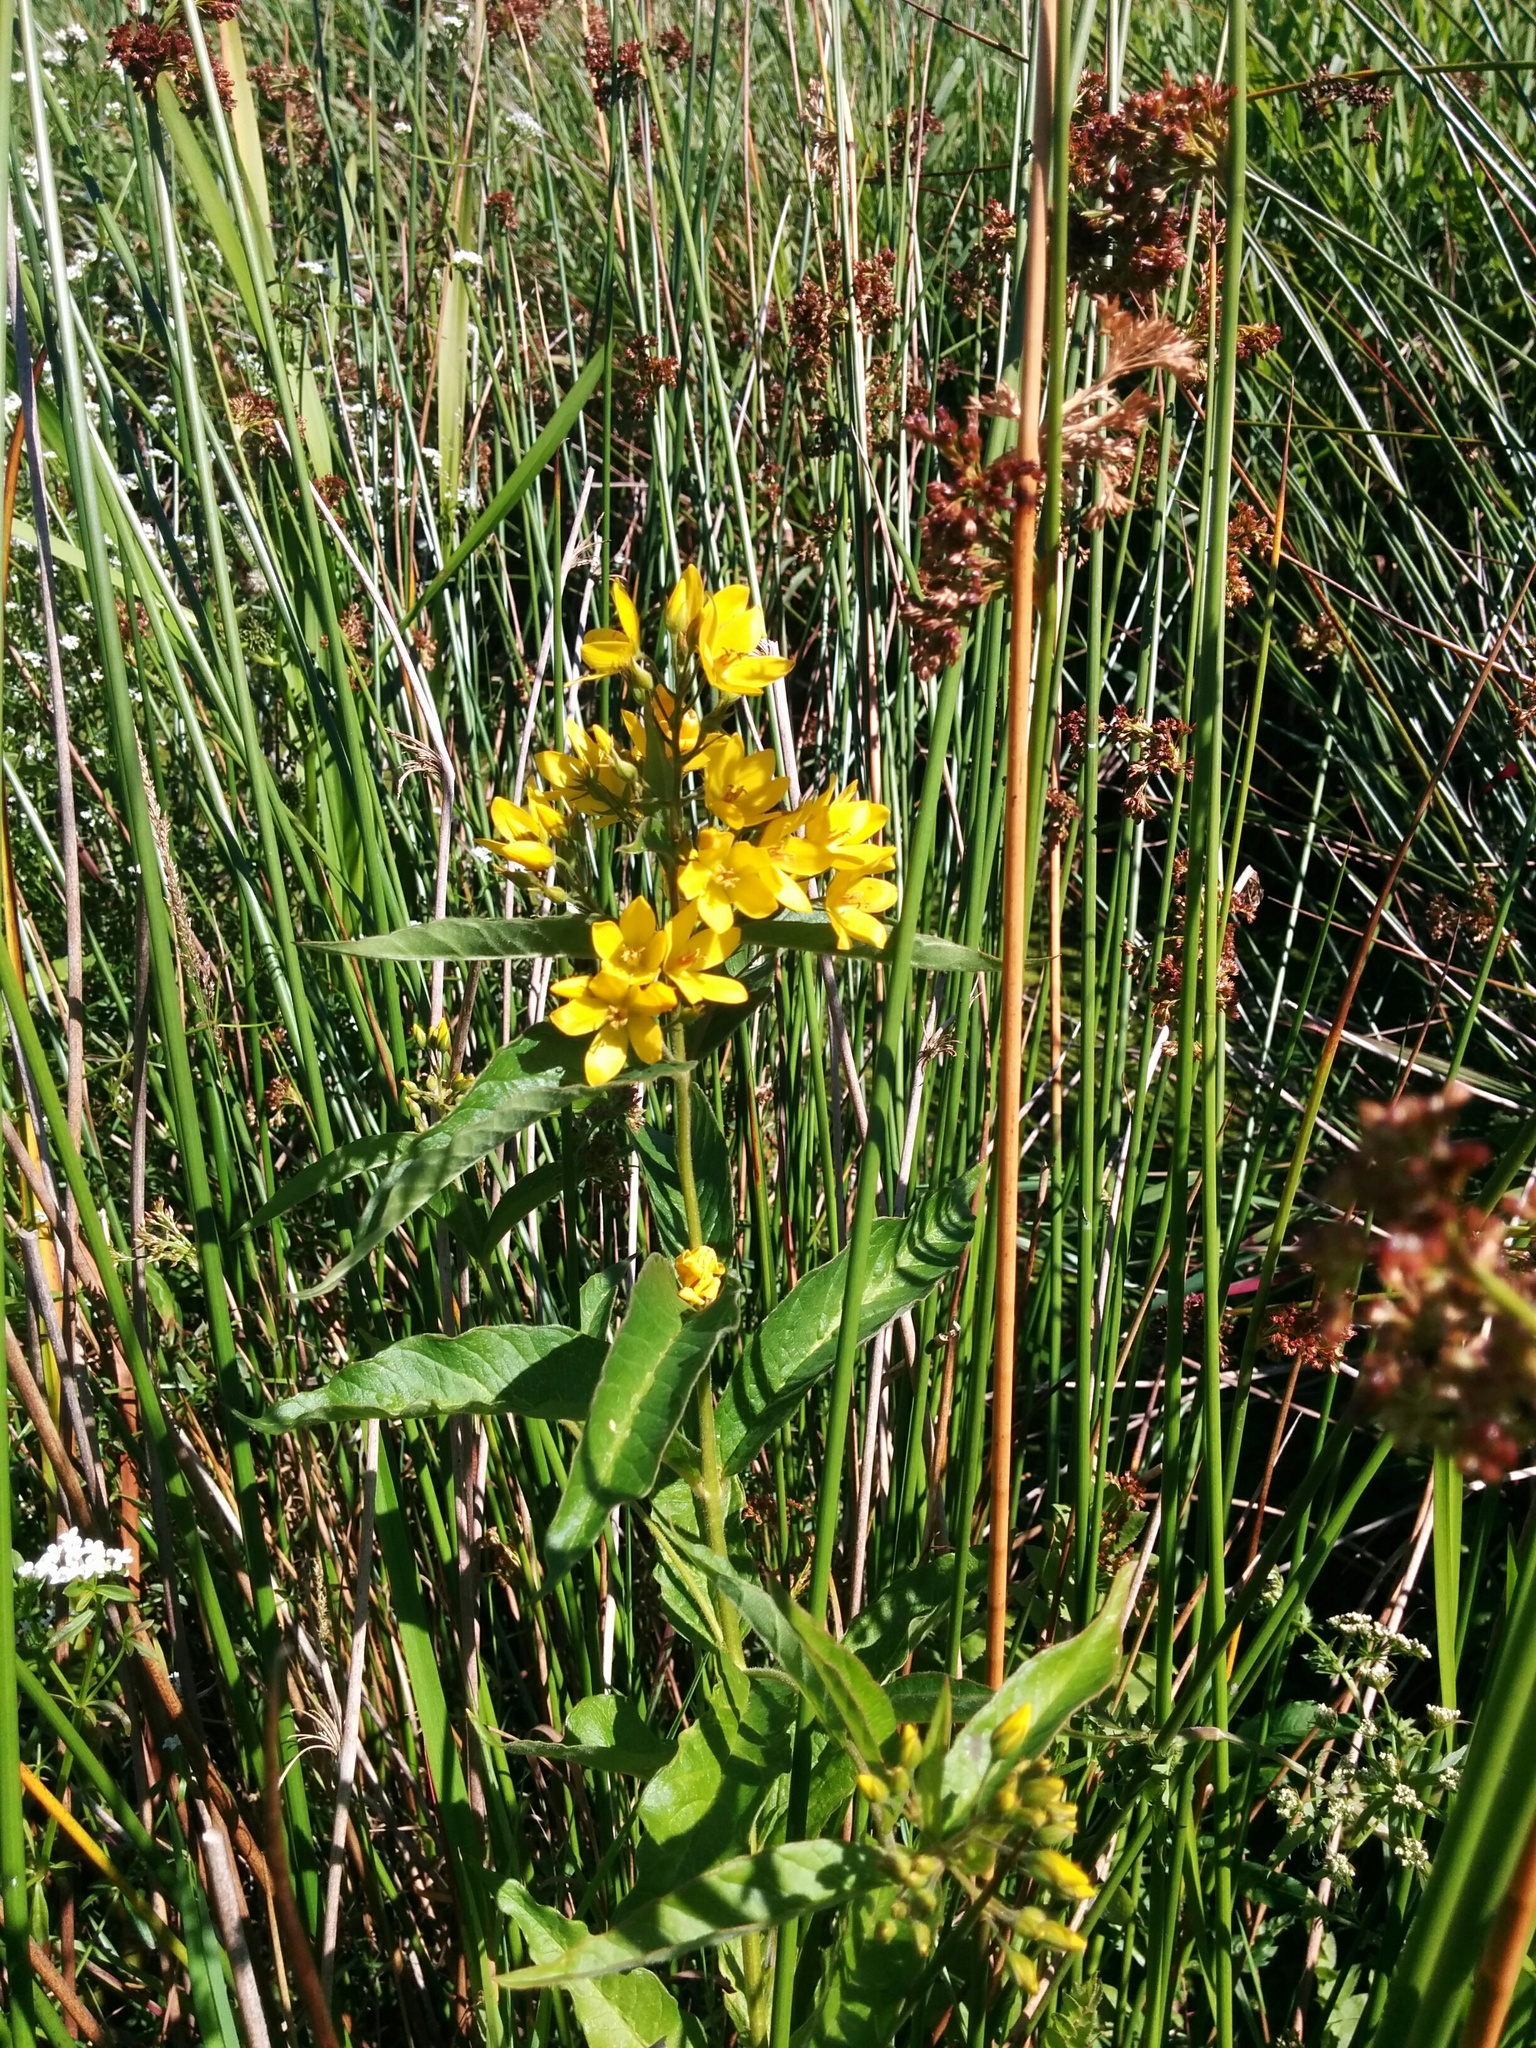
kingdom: Plantae
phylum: Tracheophyta
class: Magnoliopsida
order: Ericales
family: Primulaceae
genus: Lysimachia
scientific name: Lysimachia vulgaris
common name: Yellow loosestrife
